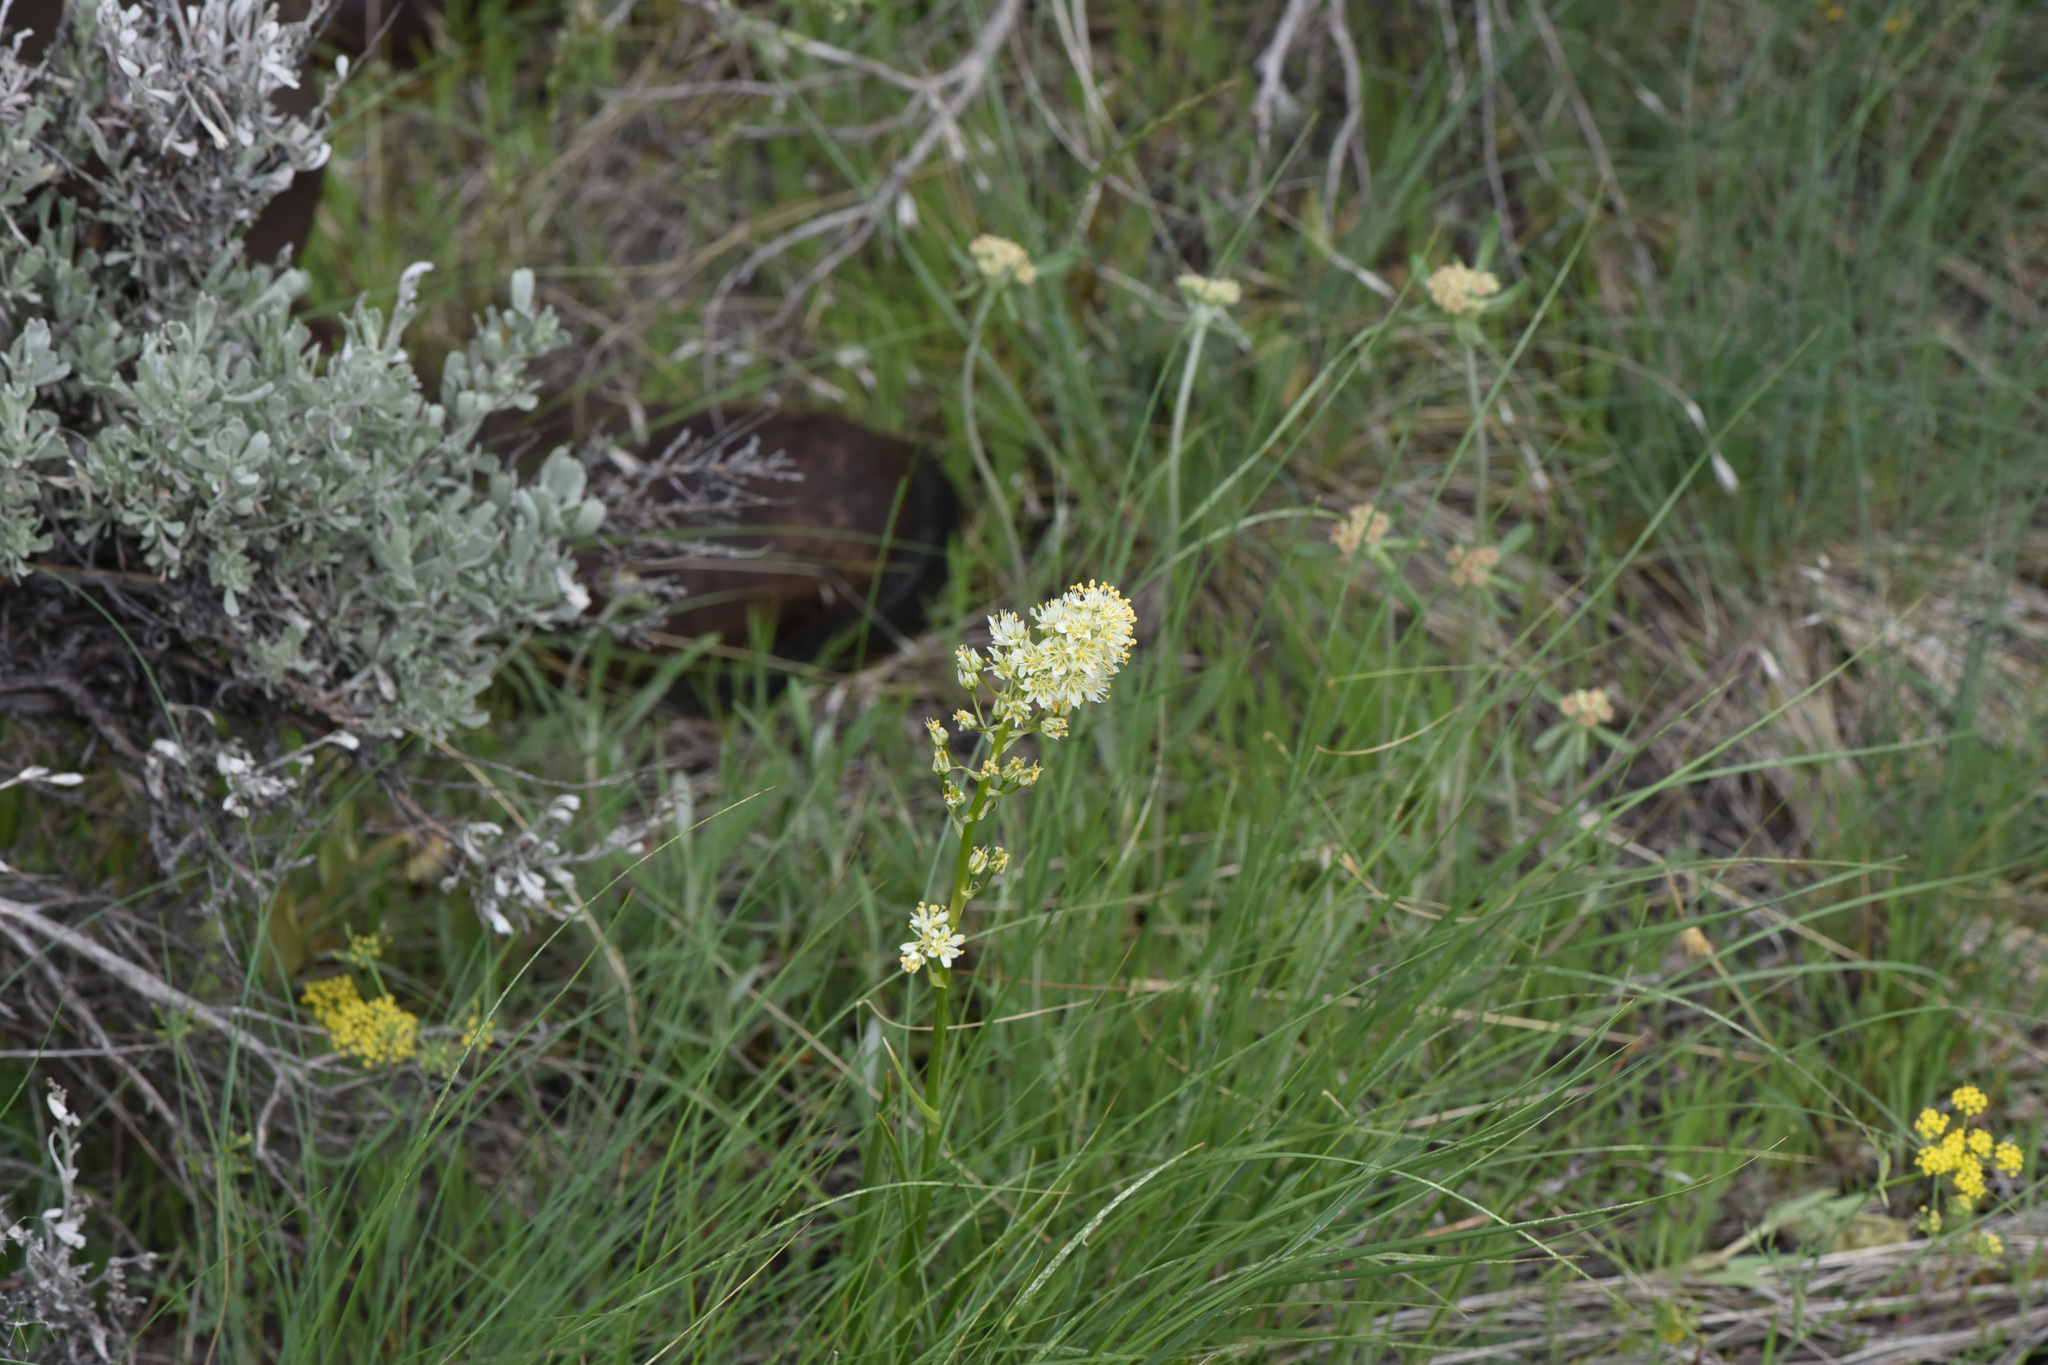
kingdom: Plantae
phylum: Tracheophyta
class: Liliopsida
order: Liliales
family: Melanthiaceae
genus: Toxicoscordion
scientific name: Toxicoscordion paniculatum
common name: Foothill death camas
